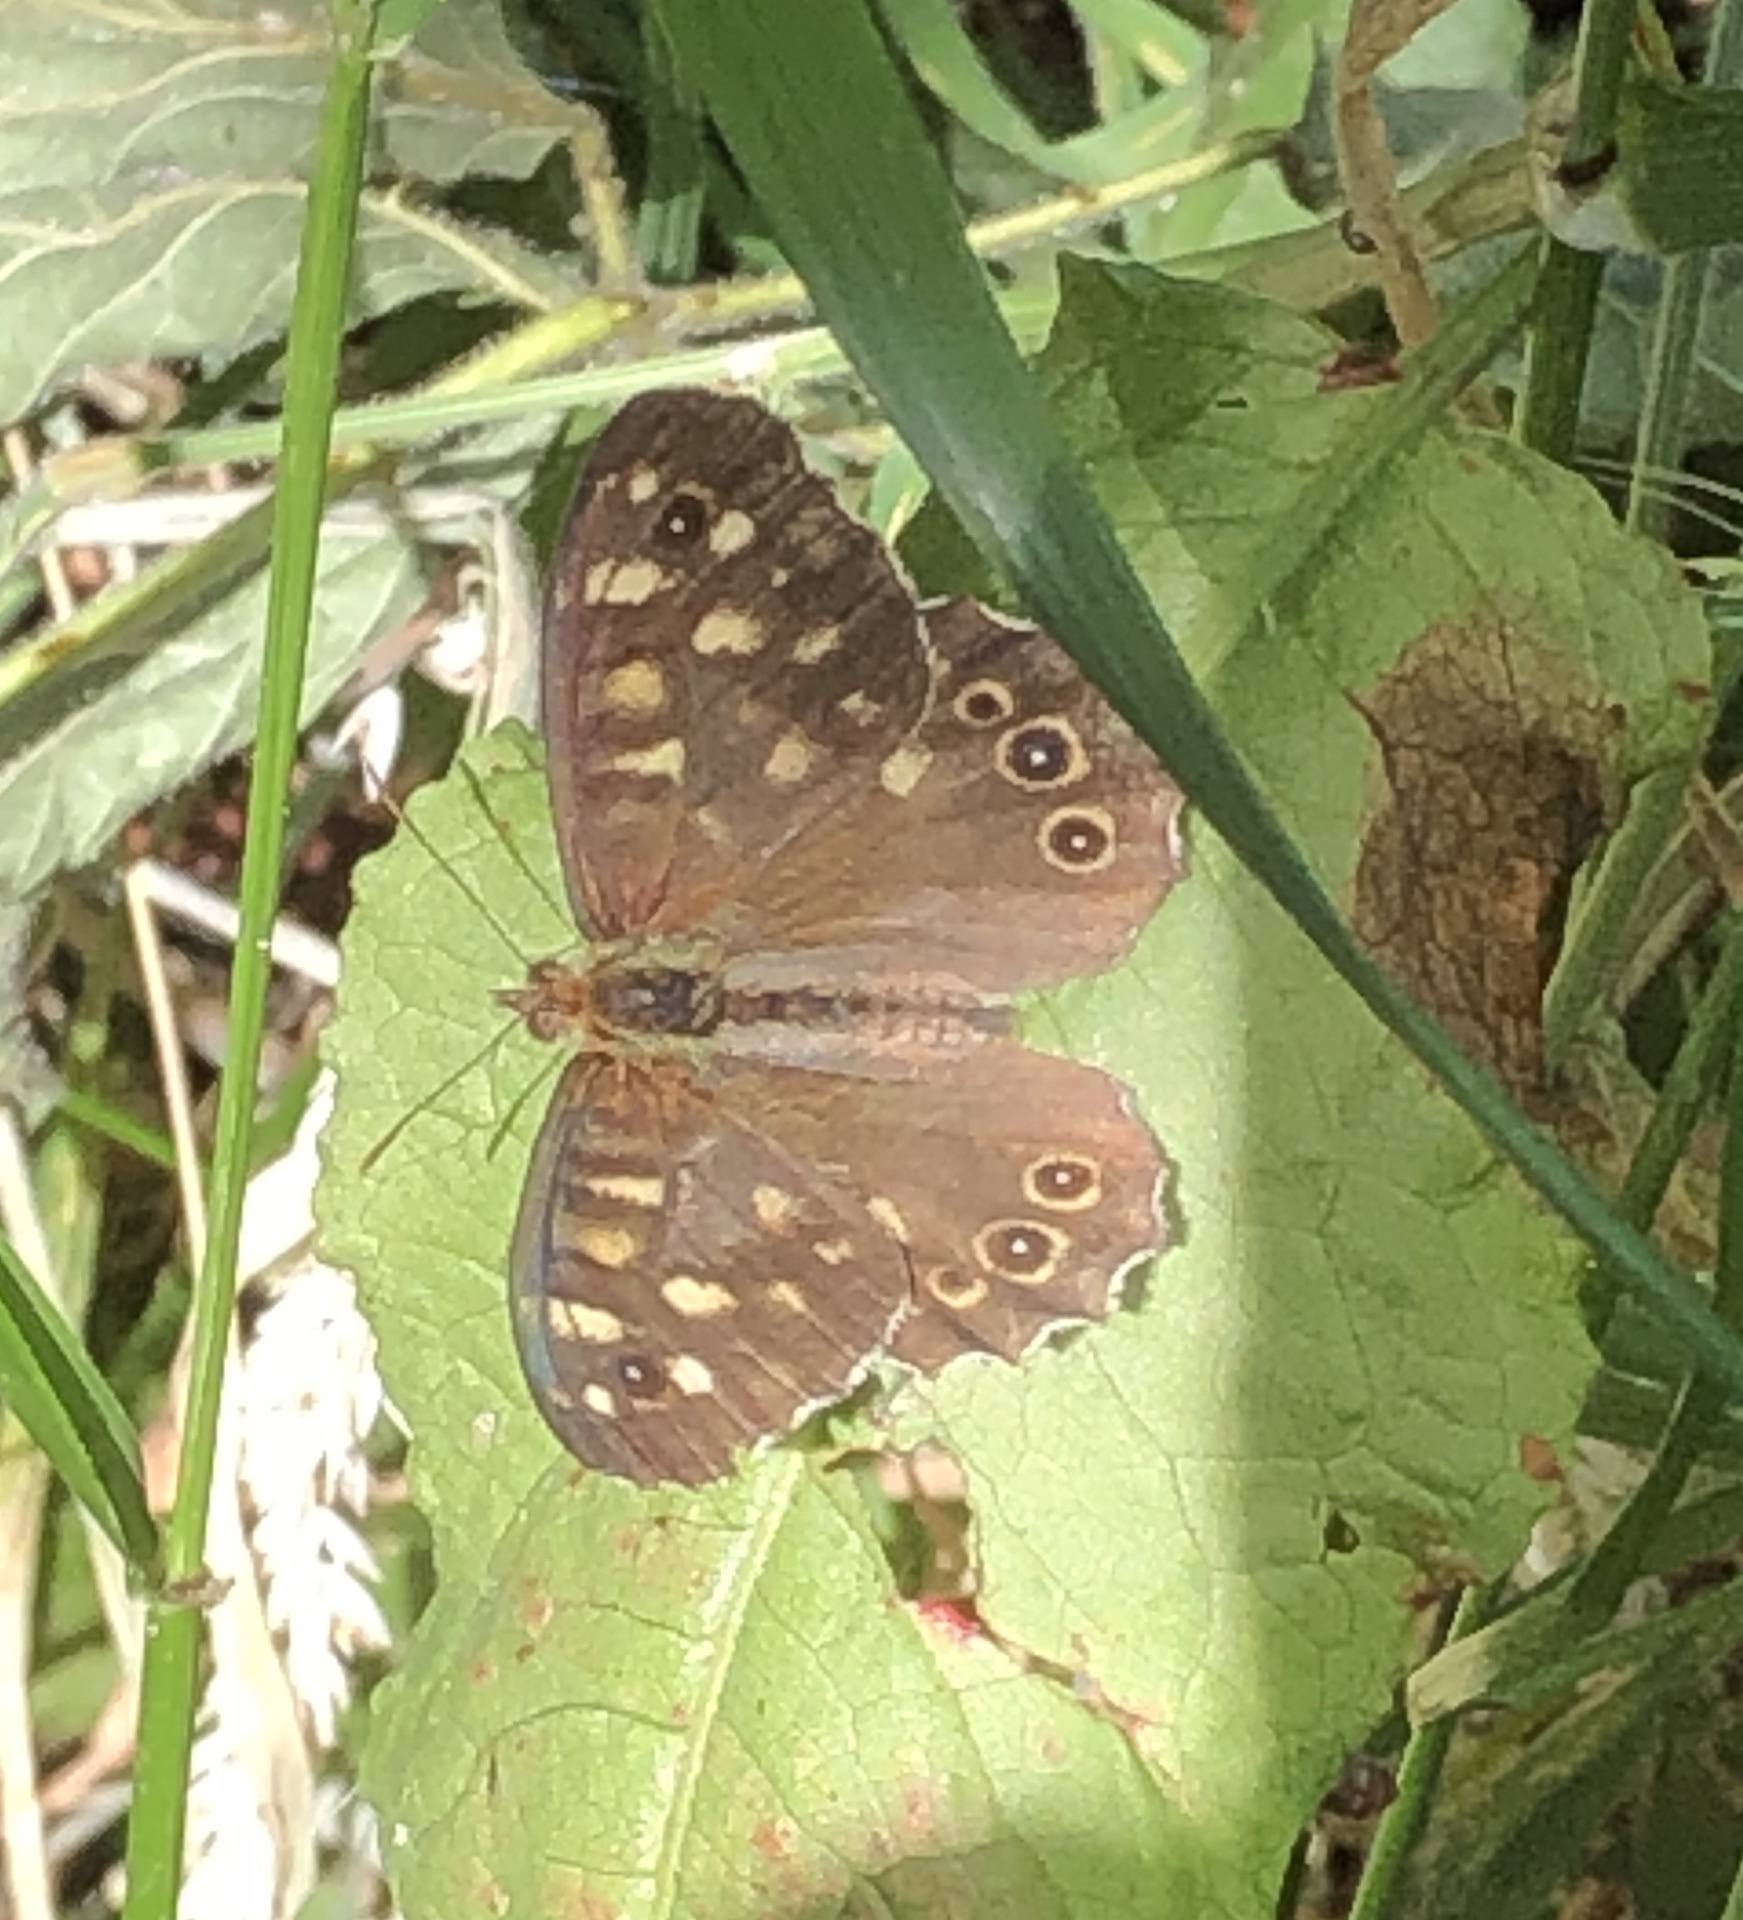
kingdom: Animalia
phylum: Arthropoda
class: Insecta
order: Lepidoptera
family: Nymphalidae
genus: Pararge
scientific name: Pararge aegeria
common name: Speckled wood
